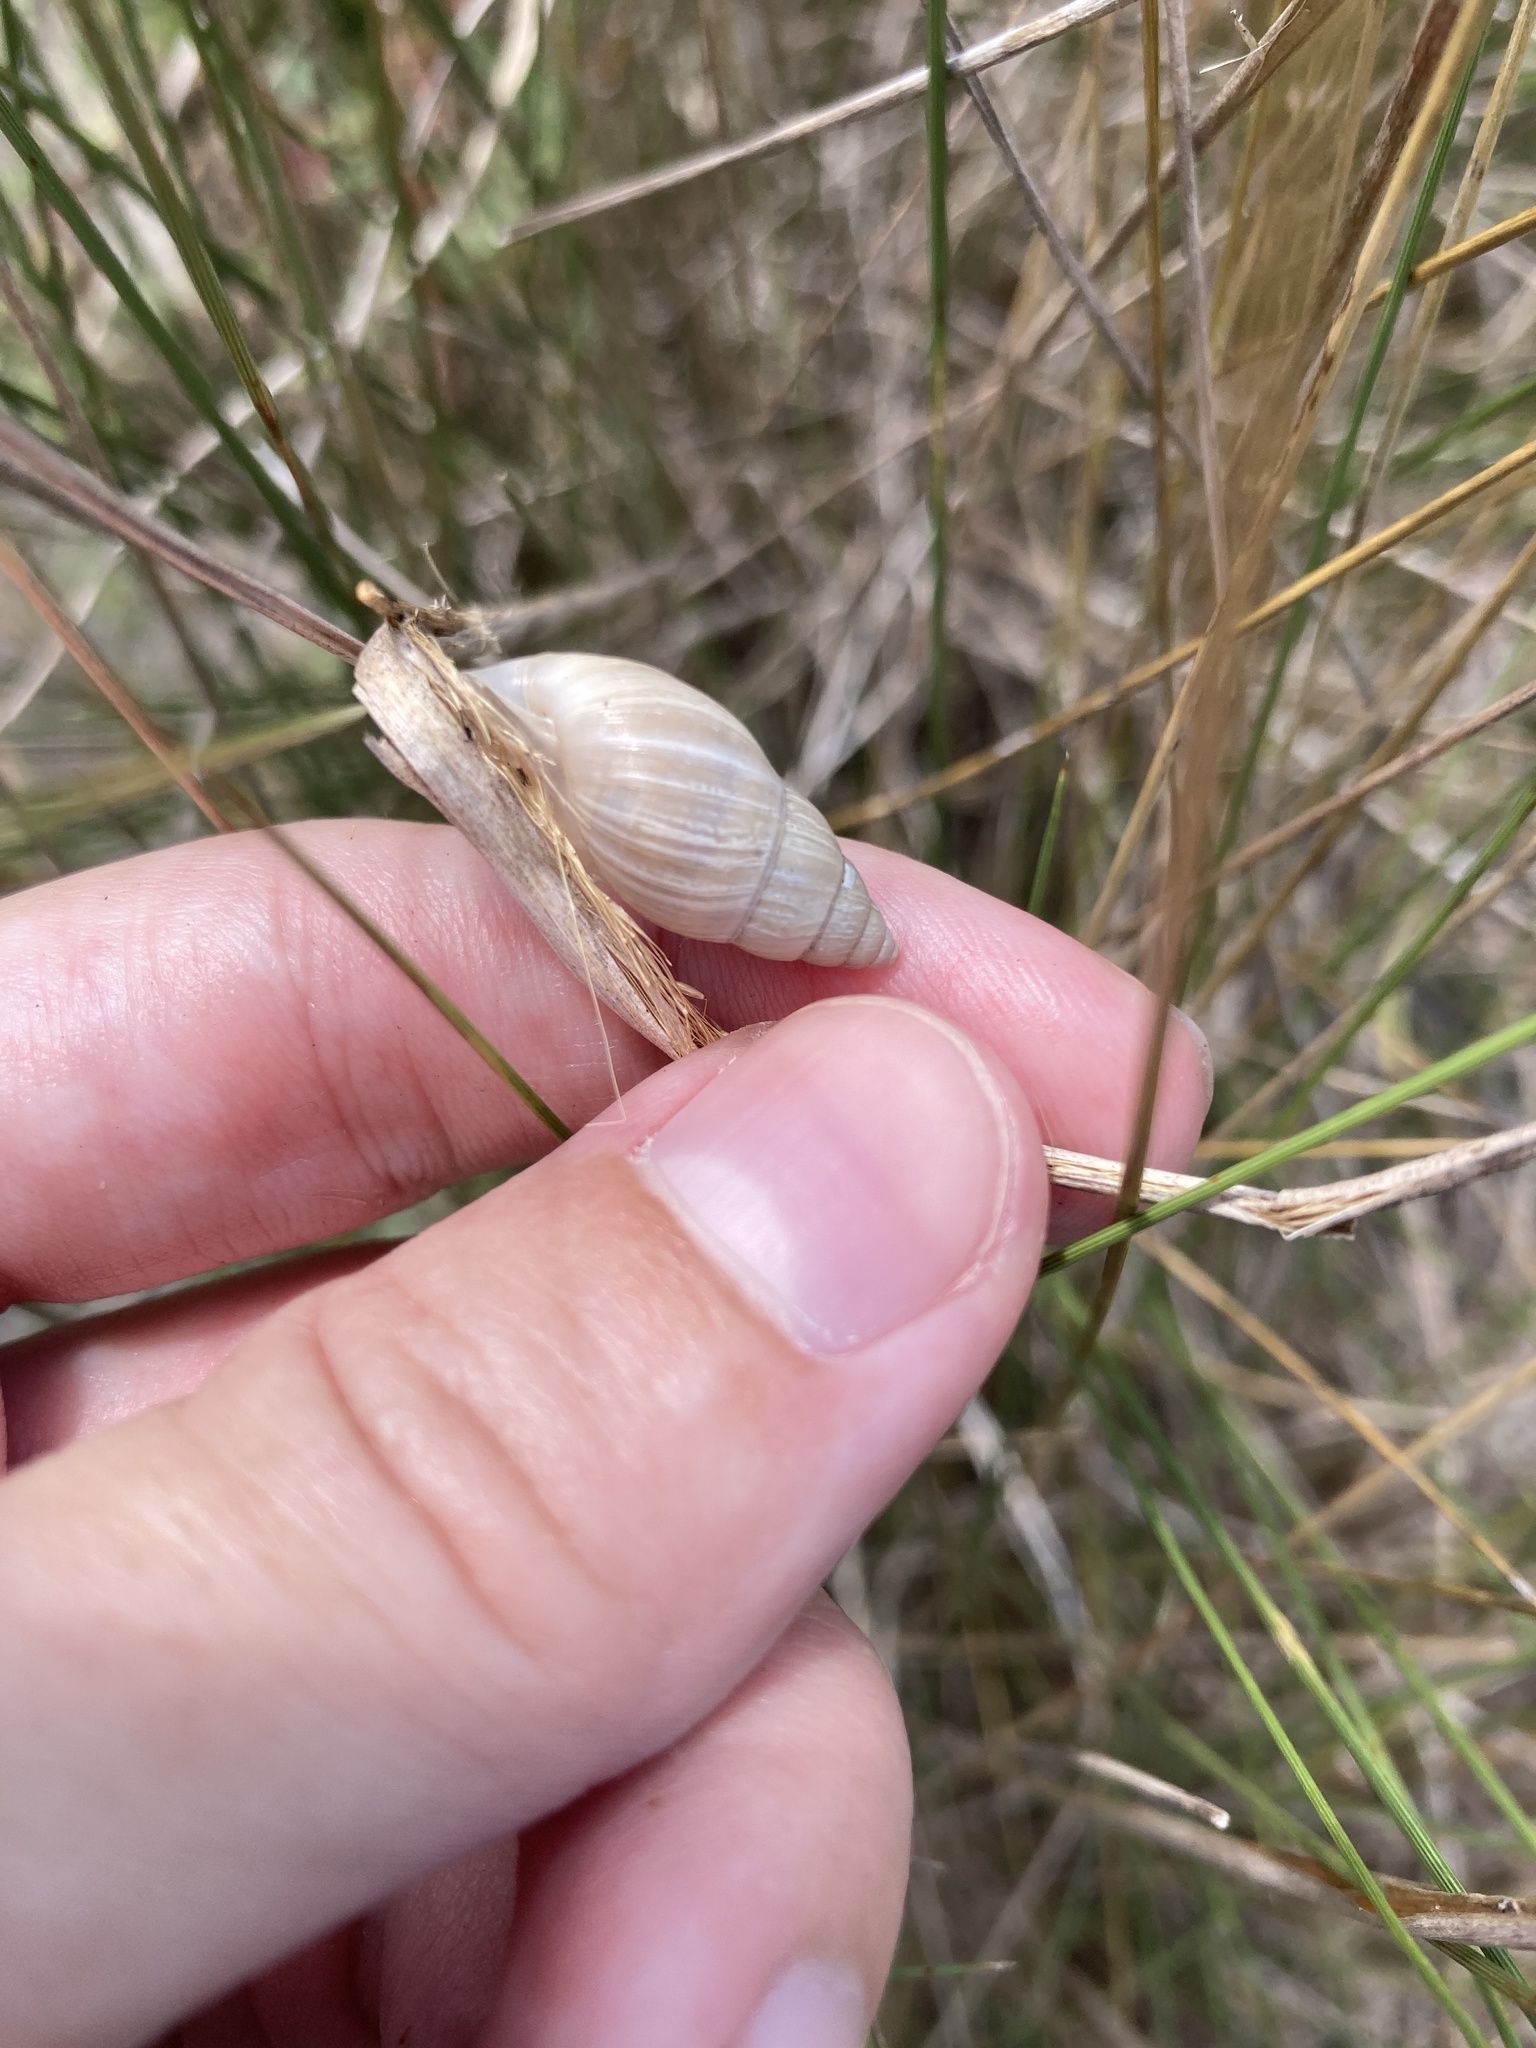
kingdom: Animalia
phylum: Mollusca
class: Gastropoda
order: Stylommatophora
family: Bulimulidae
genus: Bulimulus
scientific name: Bulimulus bonariensis
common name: Snail
